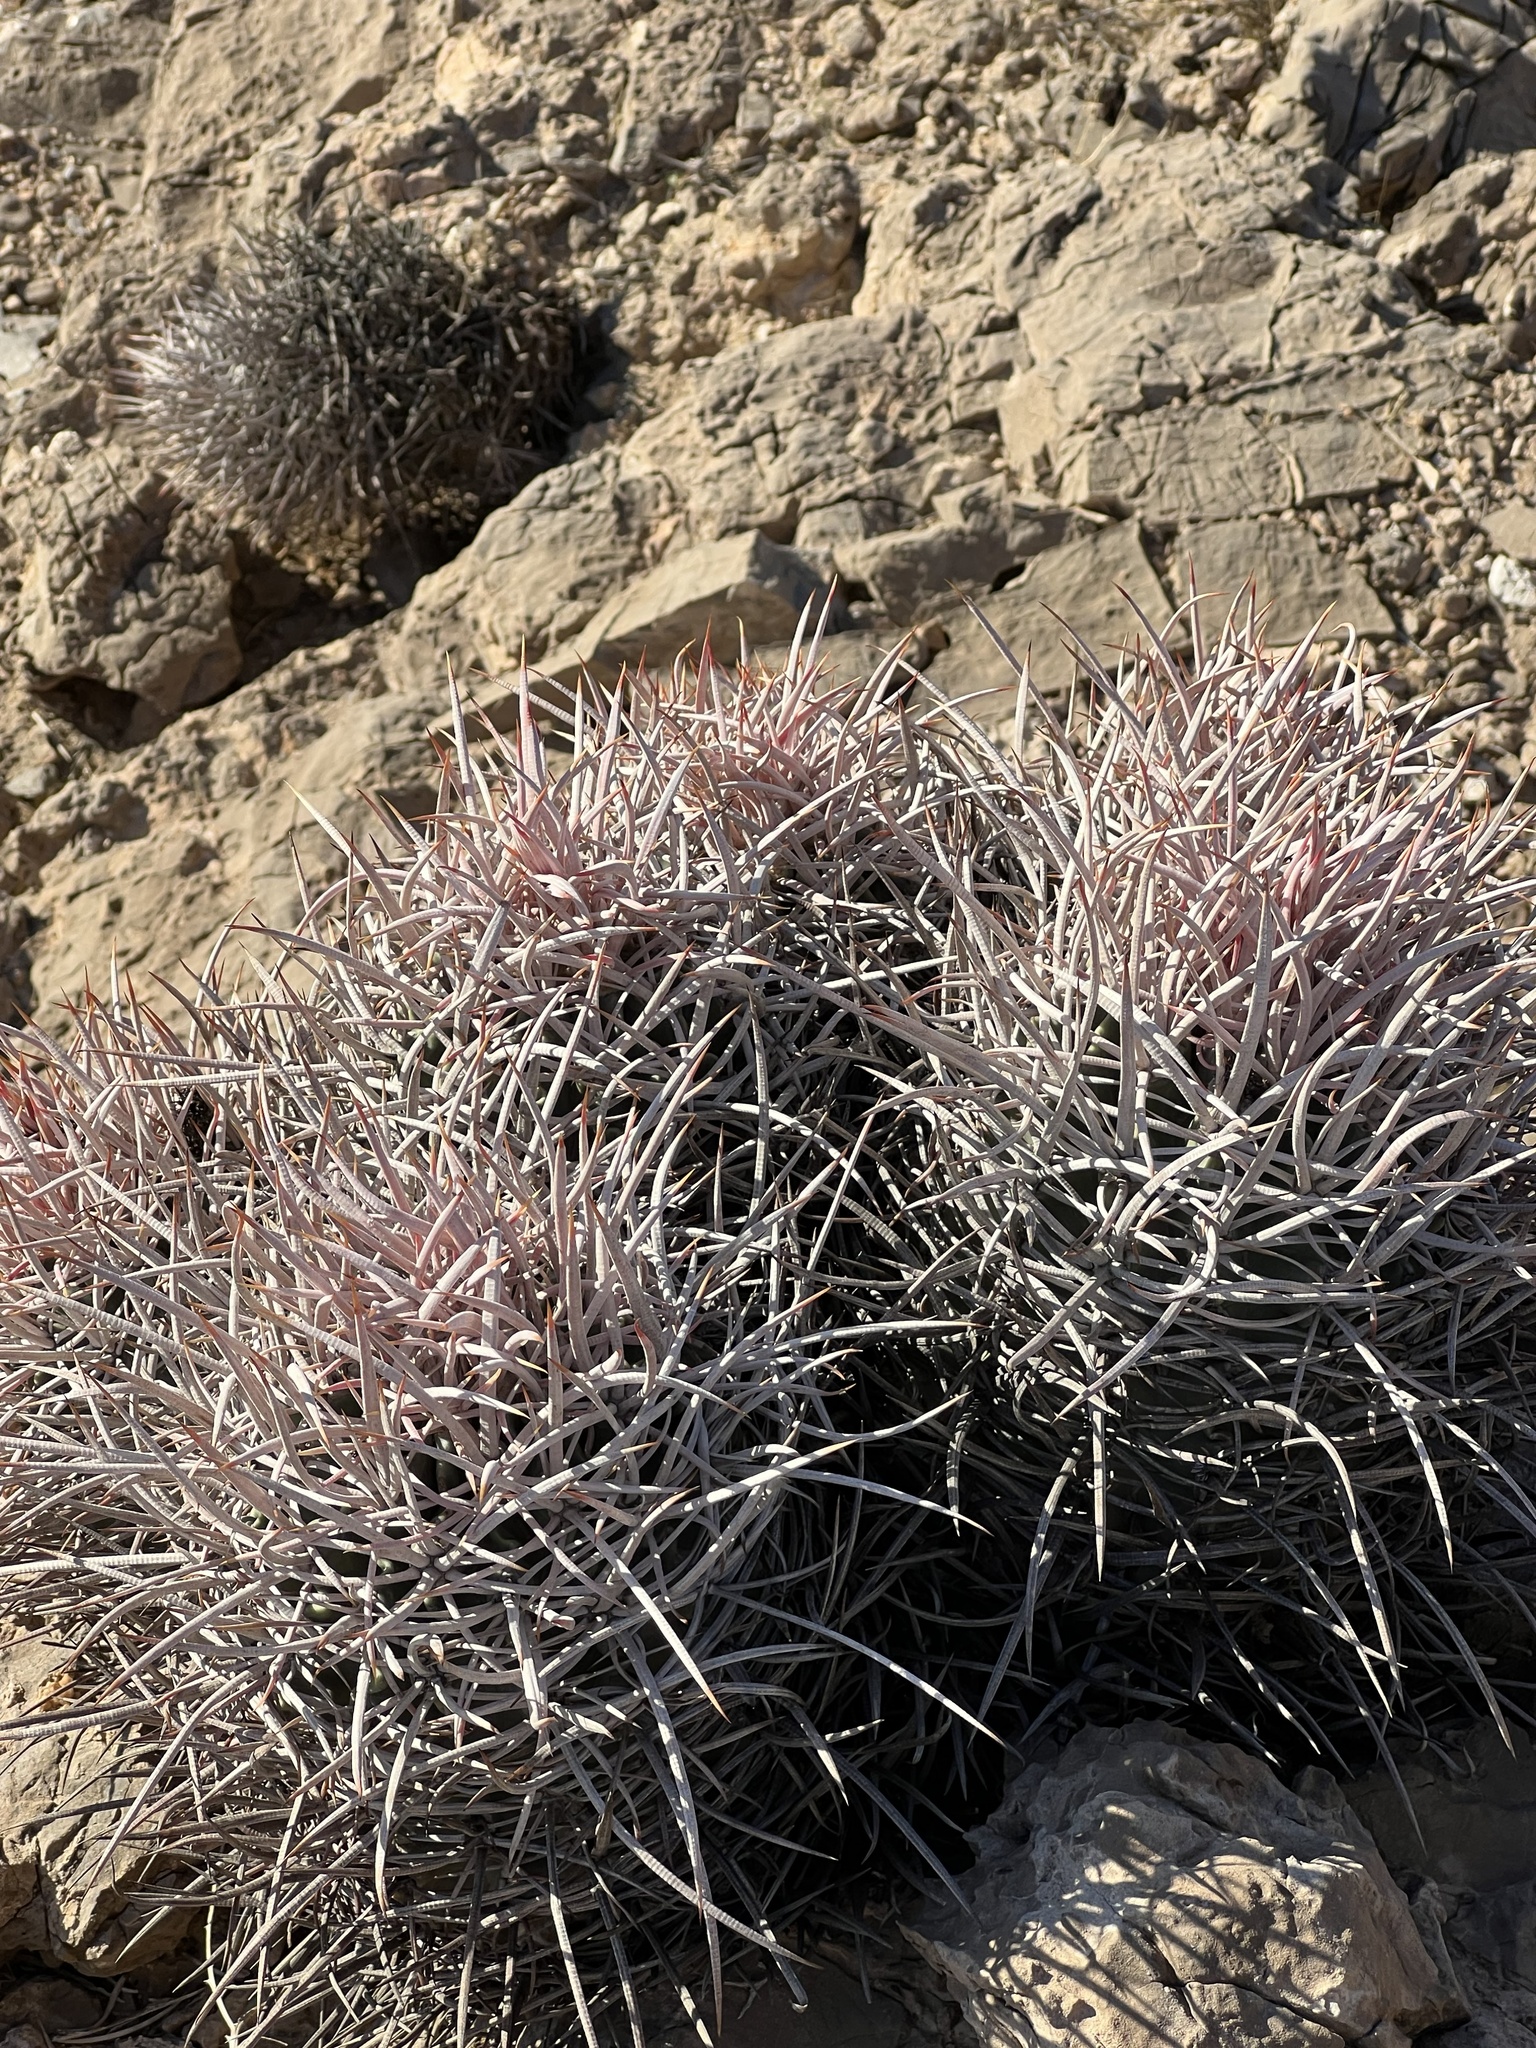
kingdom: Plantae
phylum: Tracheophyta
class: Magnoliopsida
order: Caryophyllales
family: Cactaceae
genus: Echinocactus
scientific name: Echinocactus polycephalus
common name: Cottontop cactus
